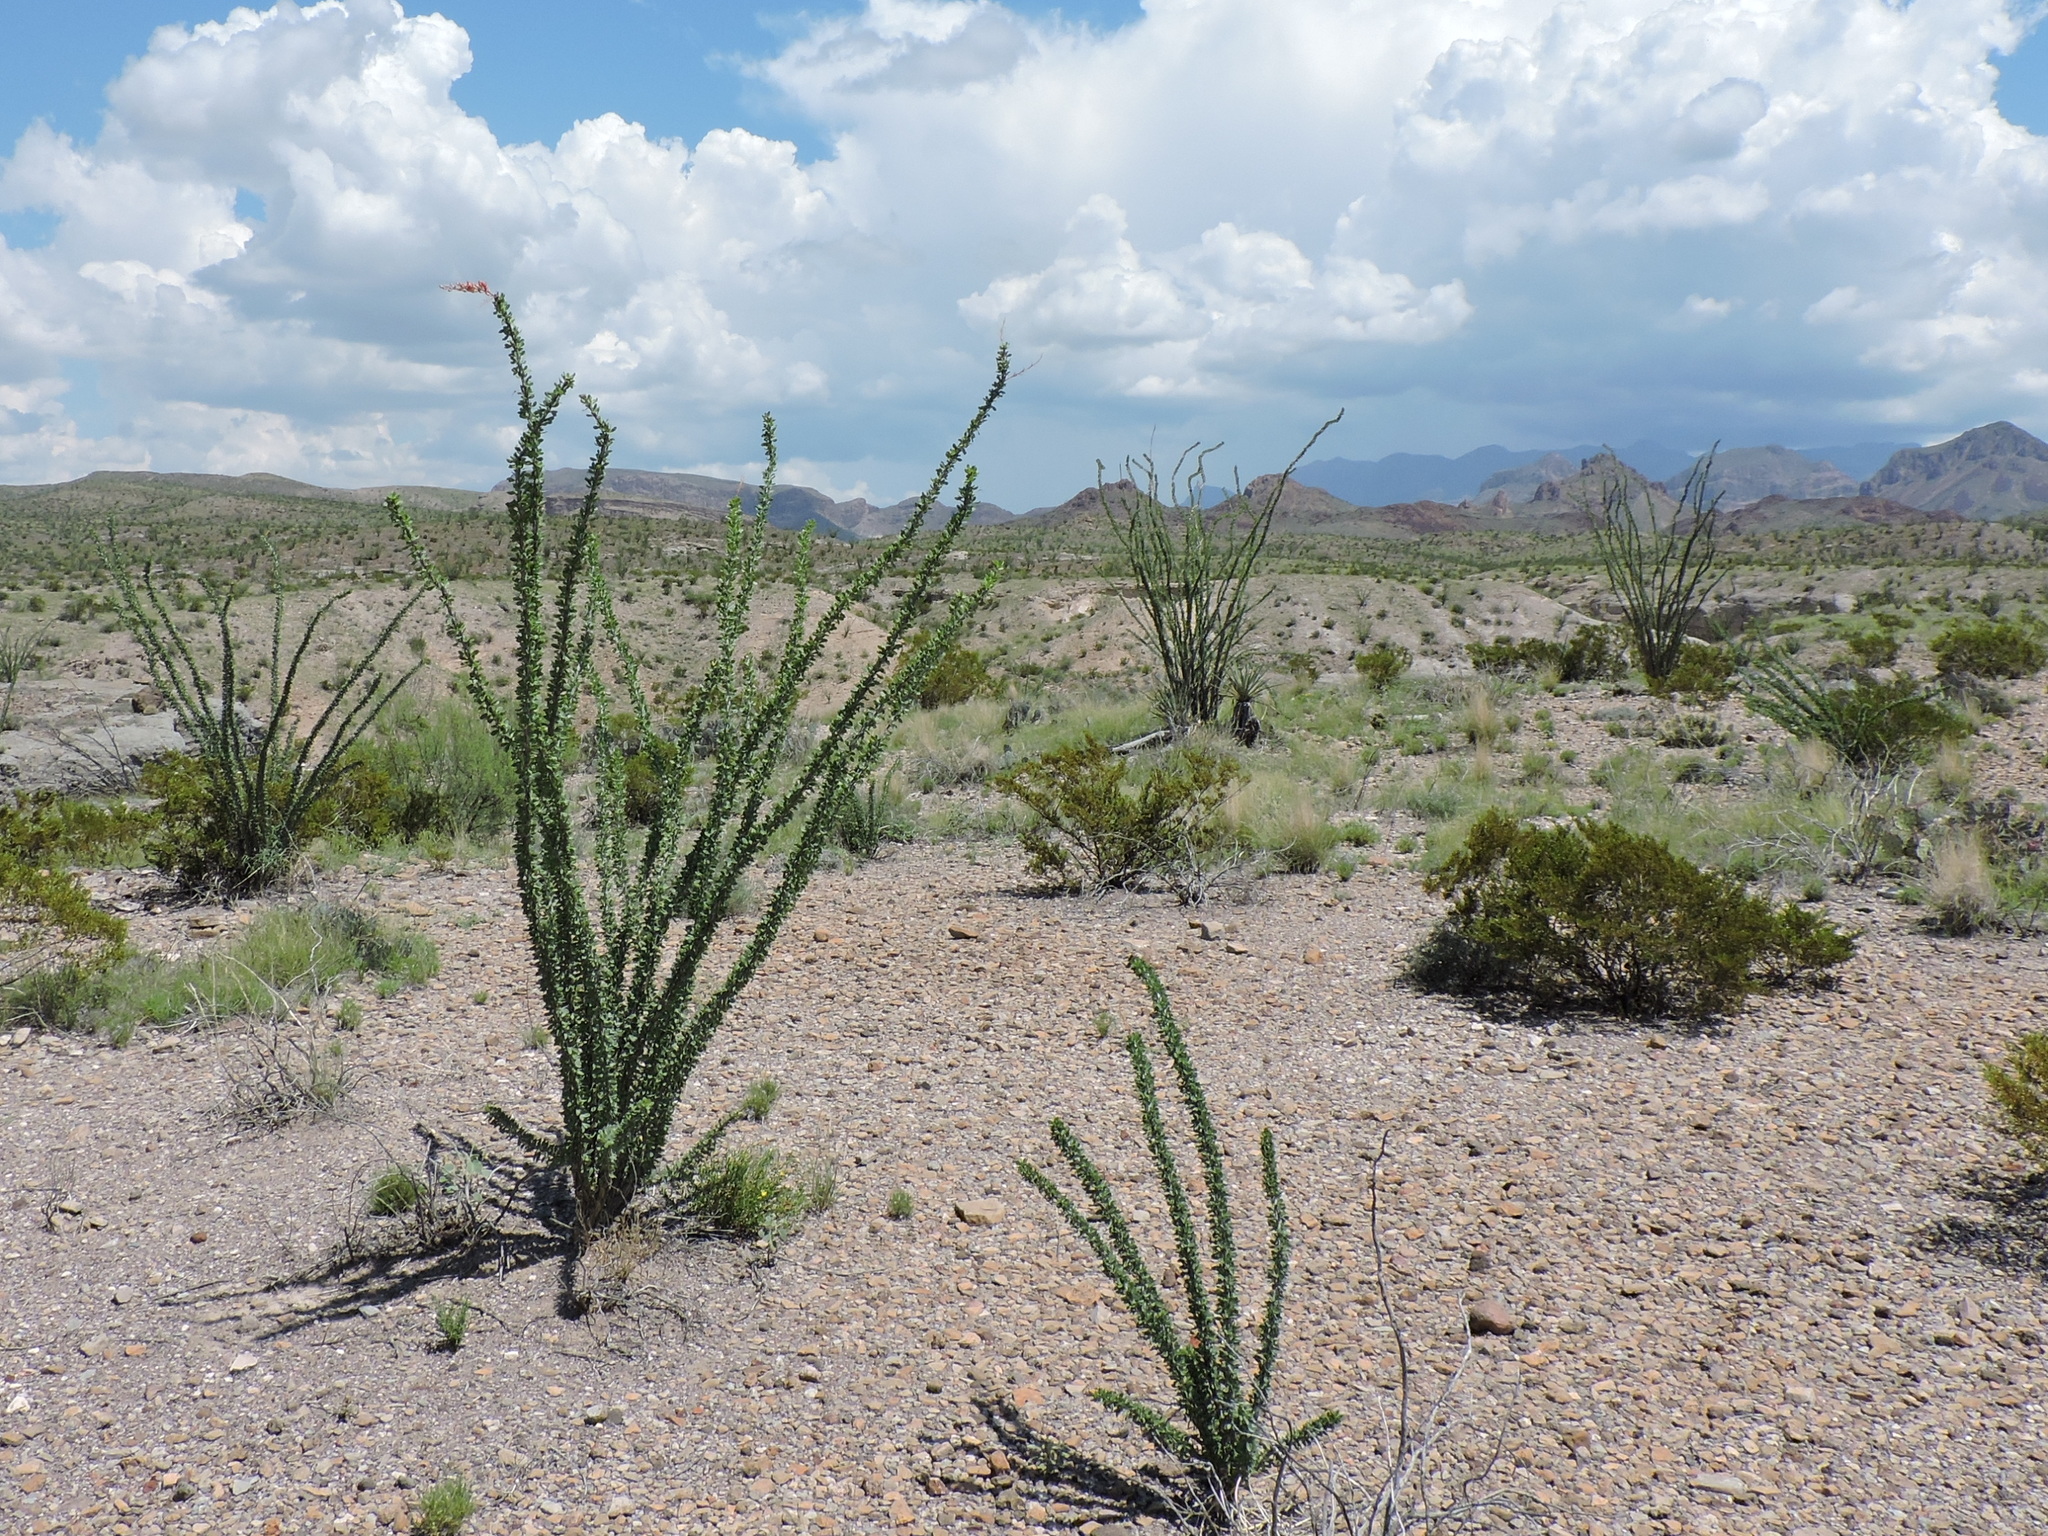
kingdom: Plantae
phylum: Tracheophyta
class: Magnoliopsida
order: Ericales
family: Fouquieriaceae
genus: Fouquieria
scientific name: Fouquieria splendens
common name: Vine-cactus
